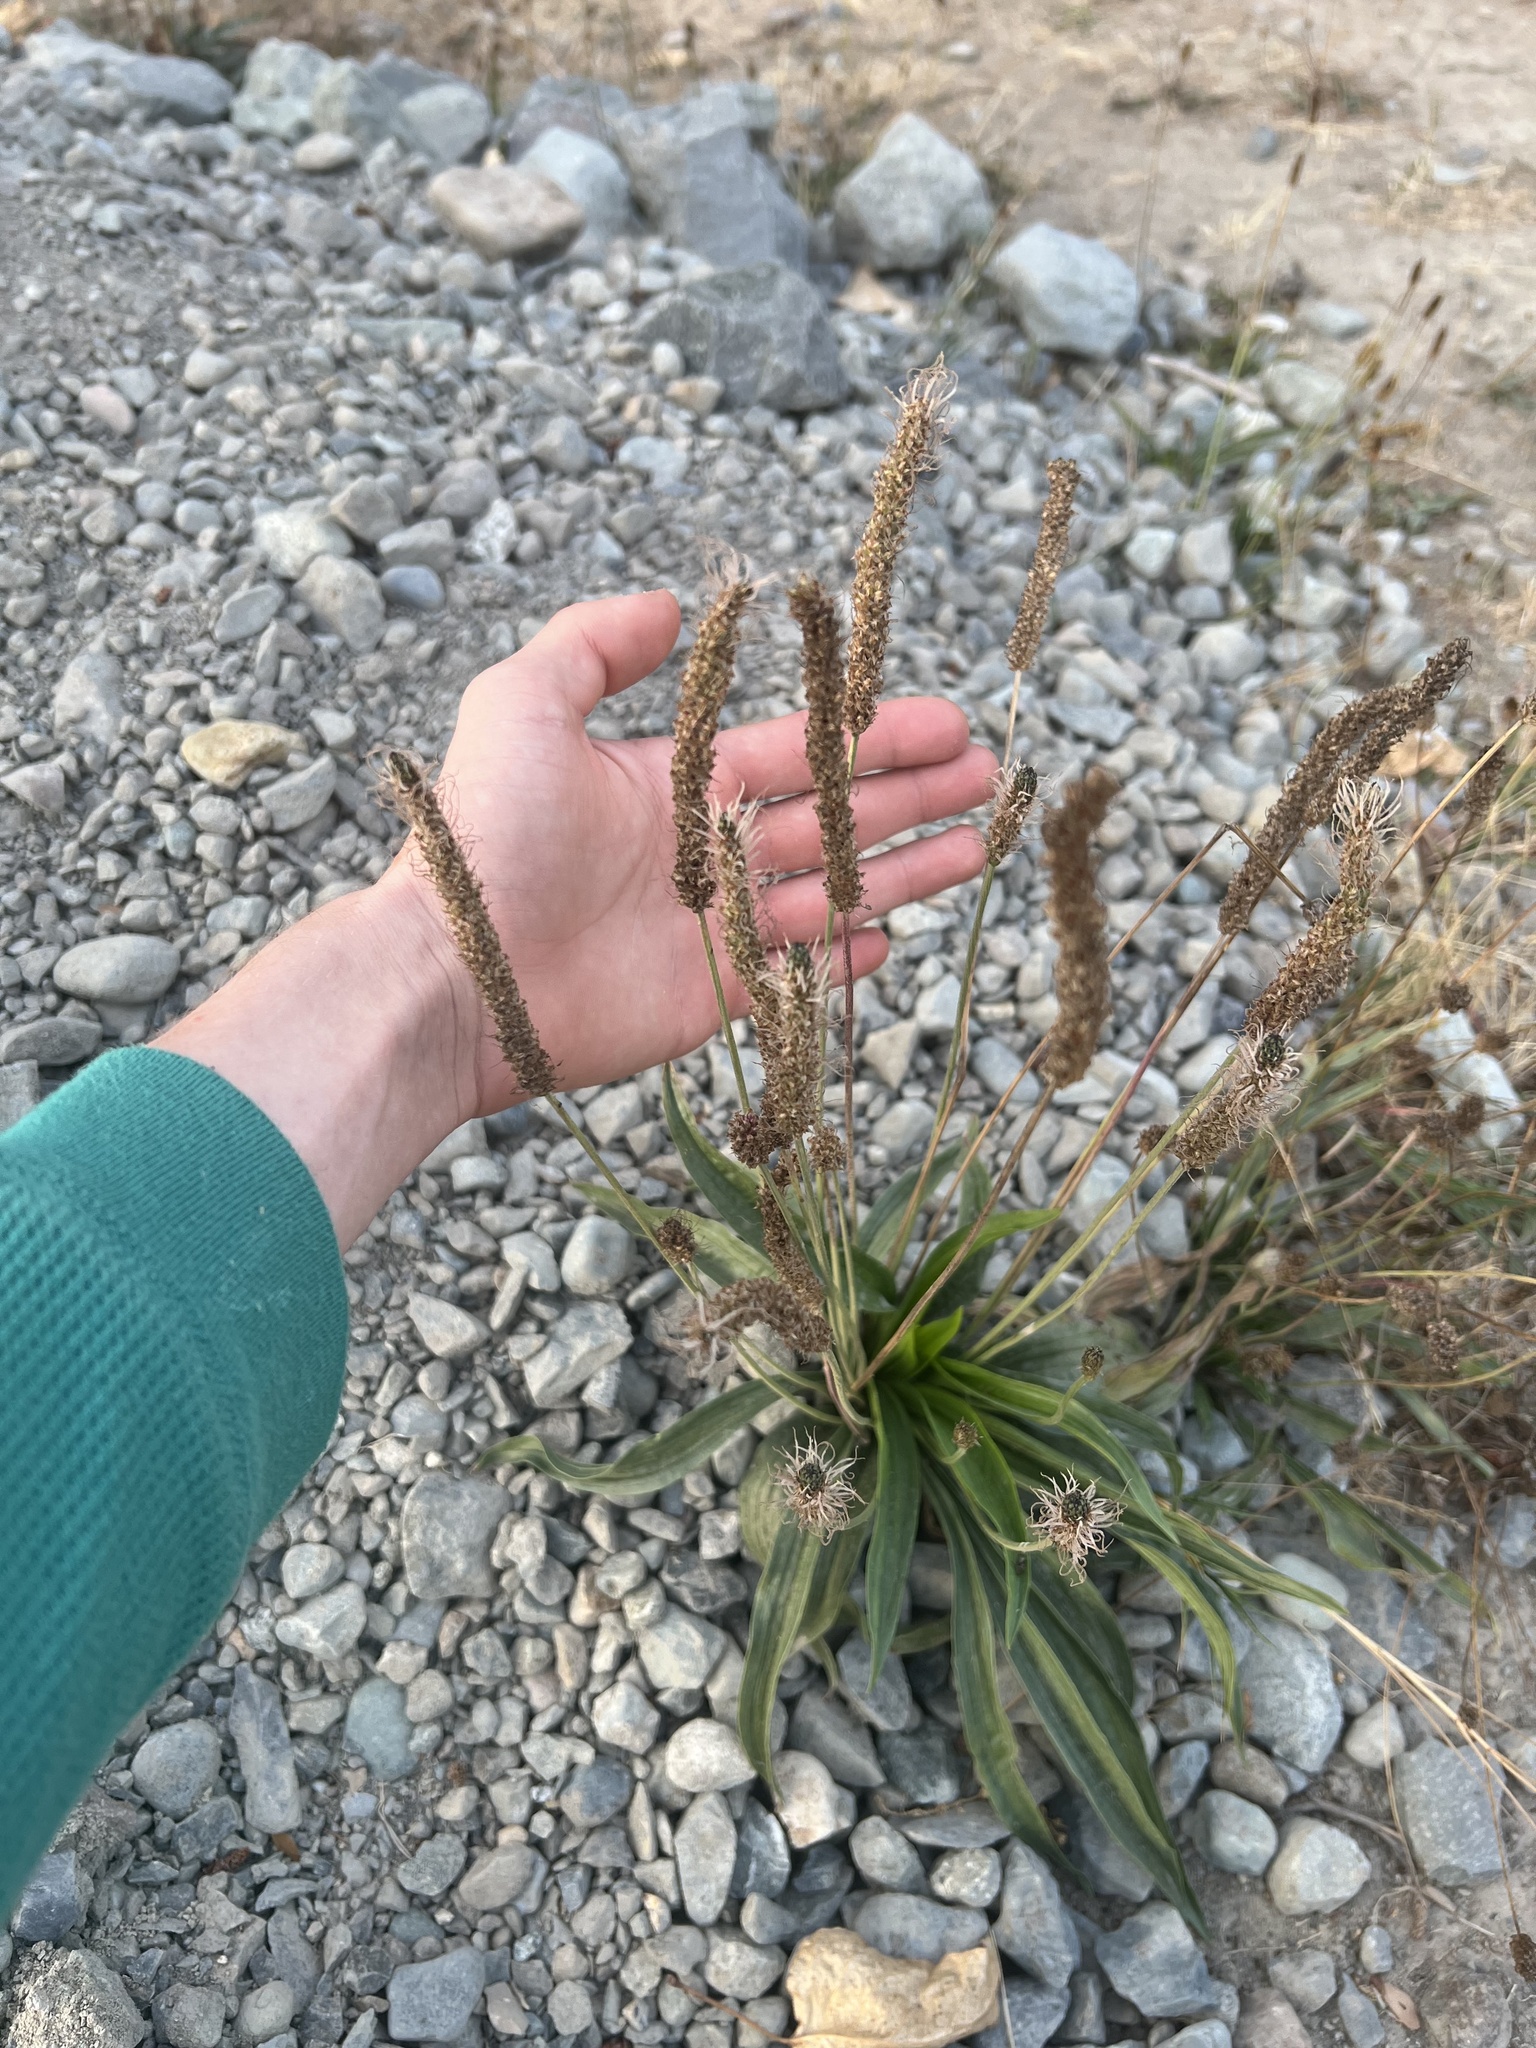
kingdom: Plantae
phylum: Tracheophyta
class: Magnoliopsida
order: Lamiales
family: Plantaginaceae
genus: Plantago
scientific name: Plantago lanceolata
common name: Ribwort plantain
